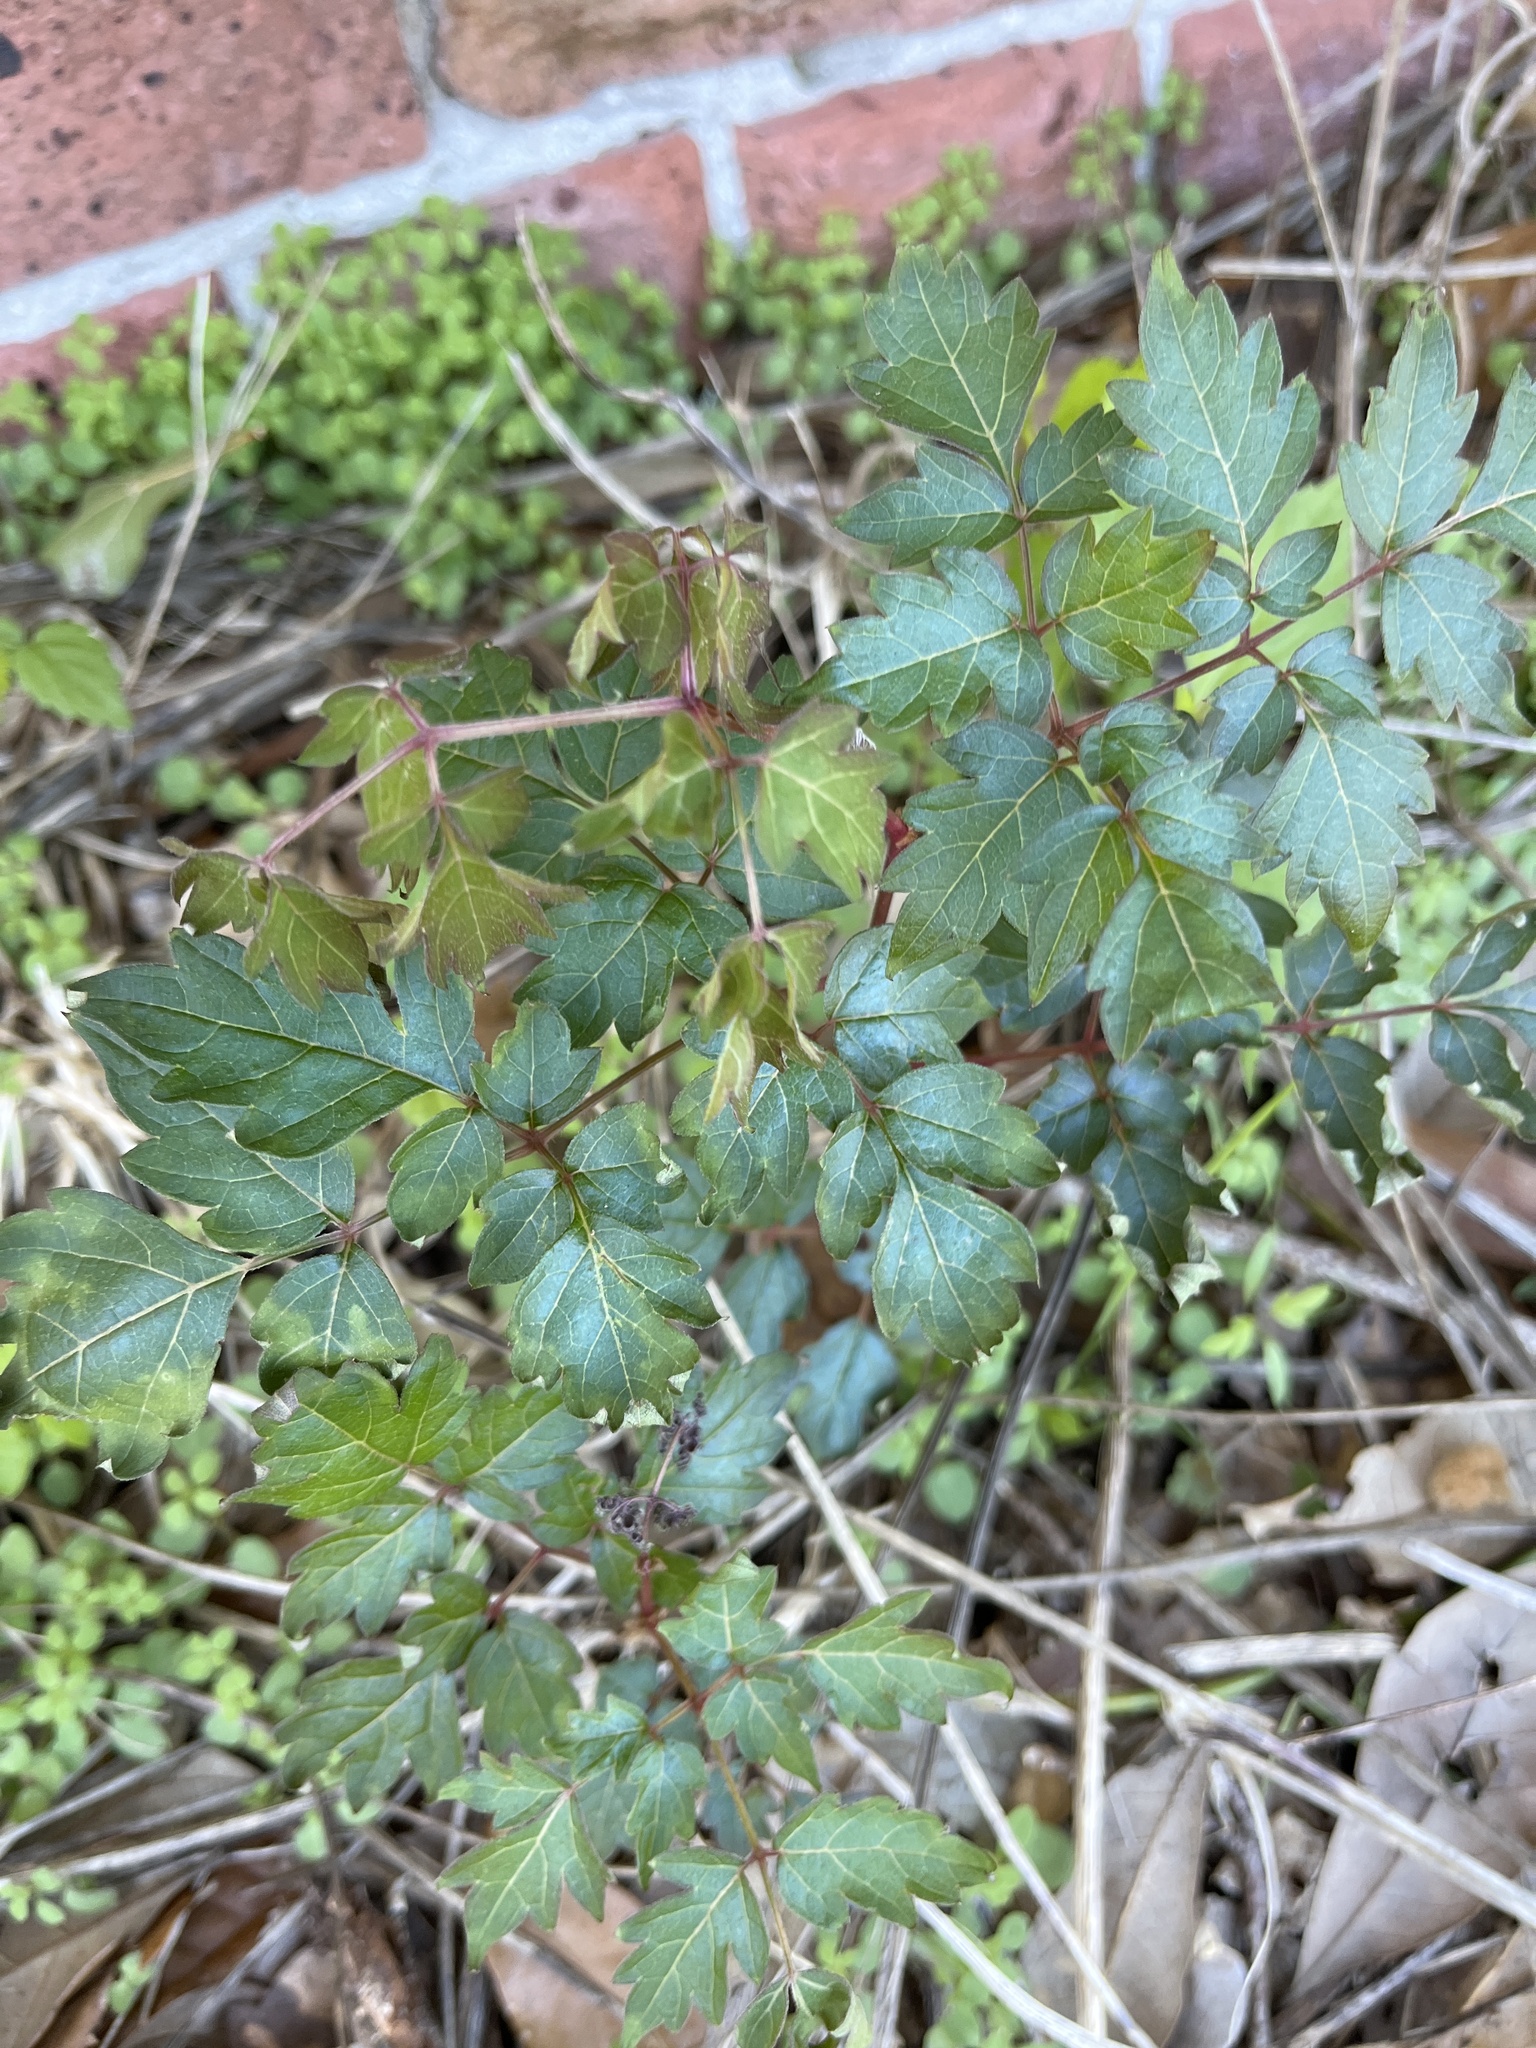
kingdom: Plantae
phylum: Tracheophyta
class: Magnoliopsida
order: Vitales
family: Vitaceae
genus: Nekemias
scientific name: Nekemias arborea
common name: Peppervine
